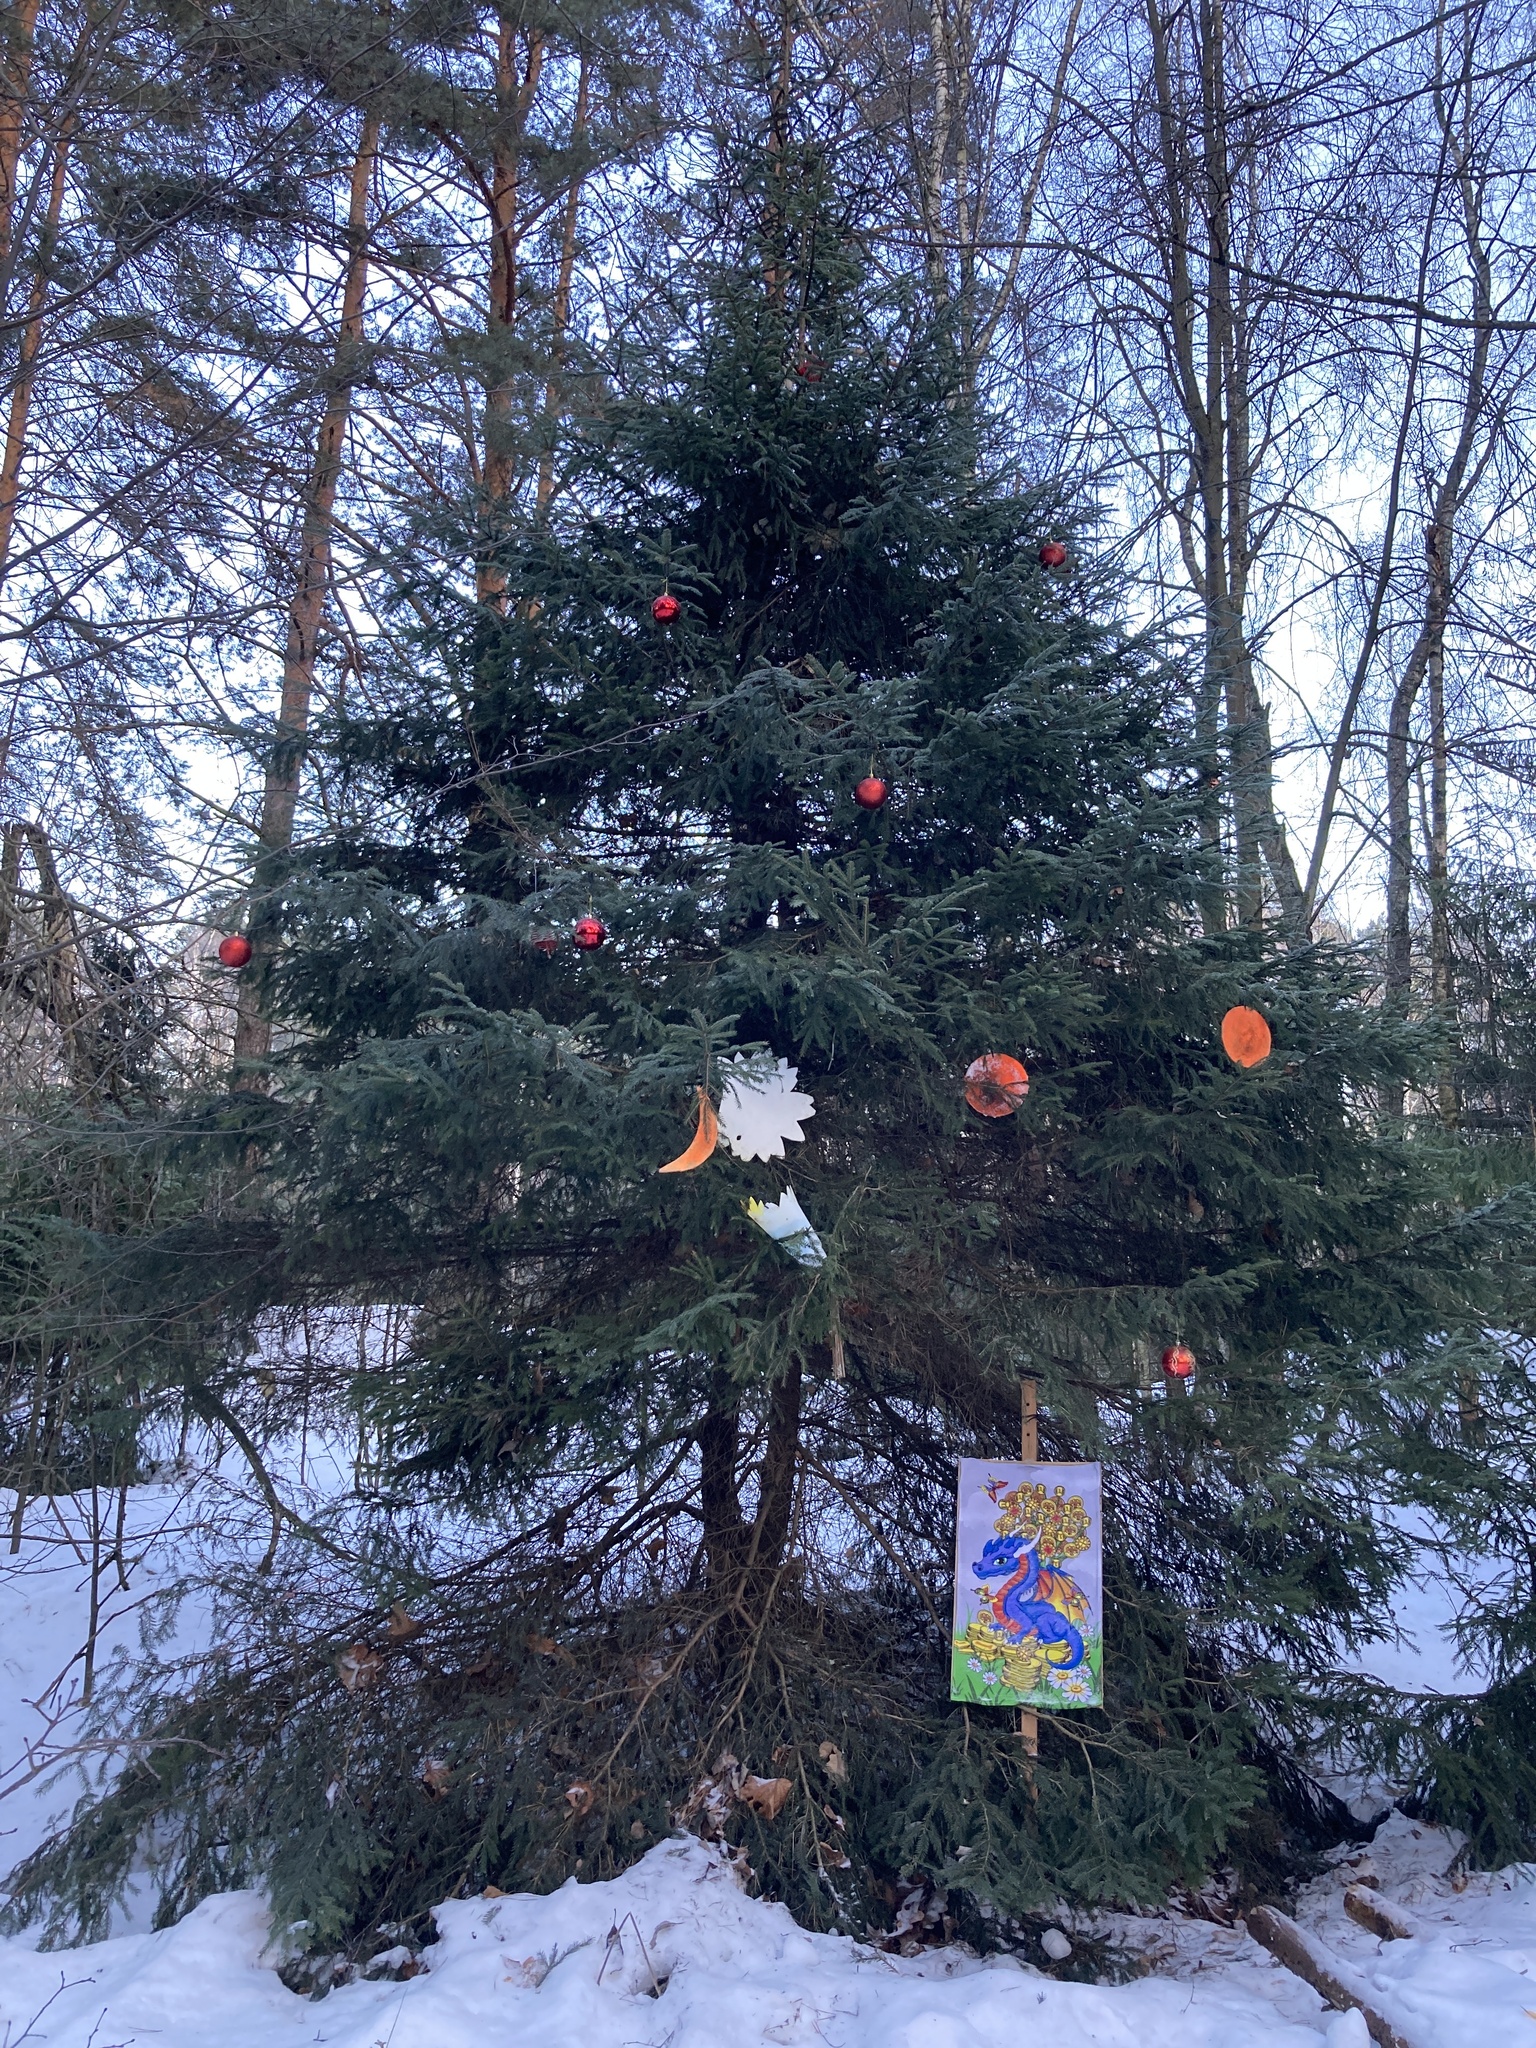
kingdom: Plantae
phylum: Tracheophyta
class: Pinopsida
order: Pinales
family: Pinaceae
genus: Picea
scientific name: Picea abies
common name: Norway spruce
